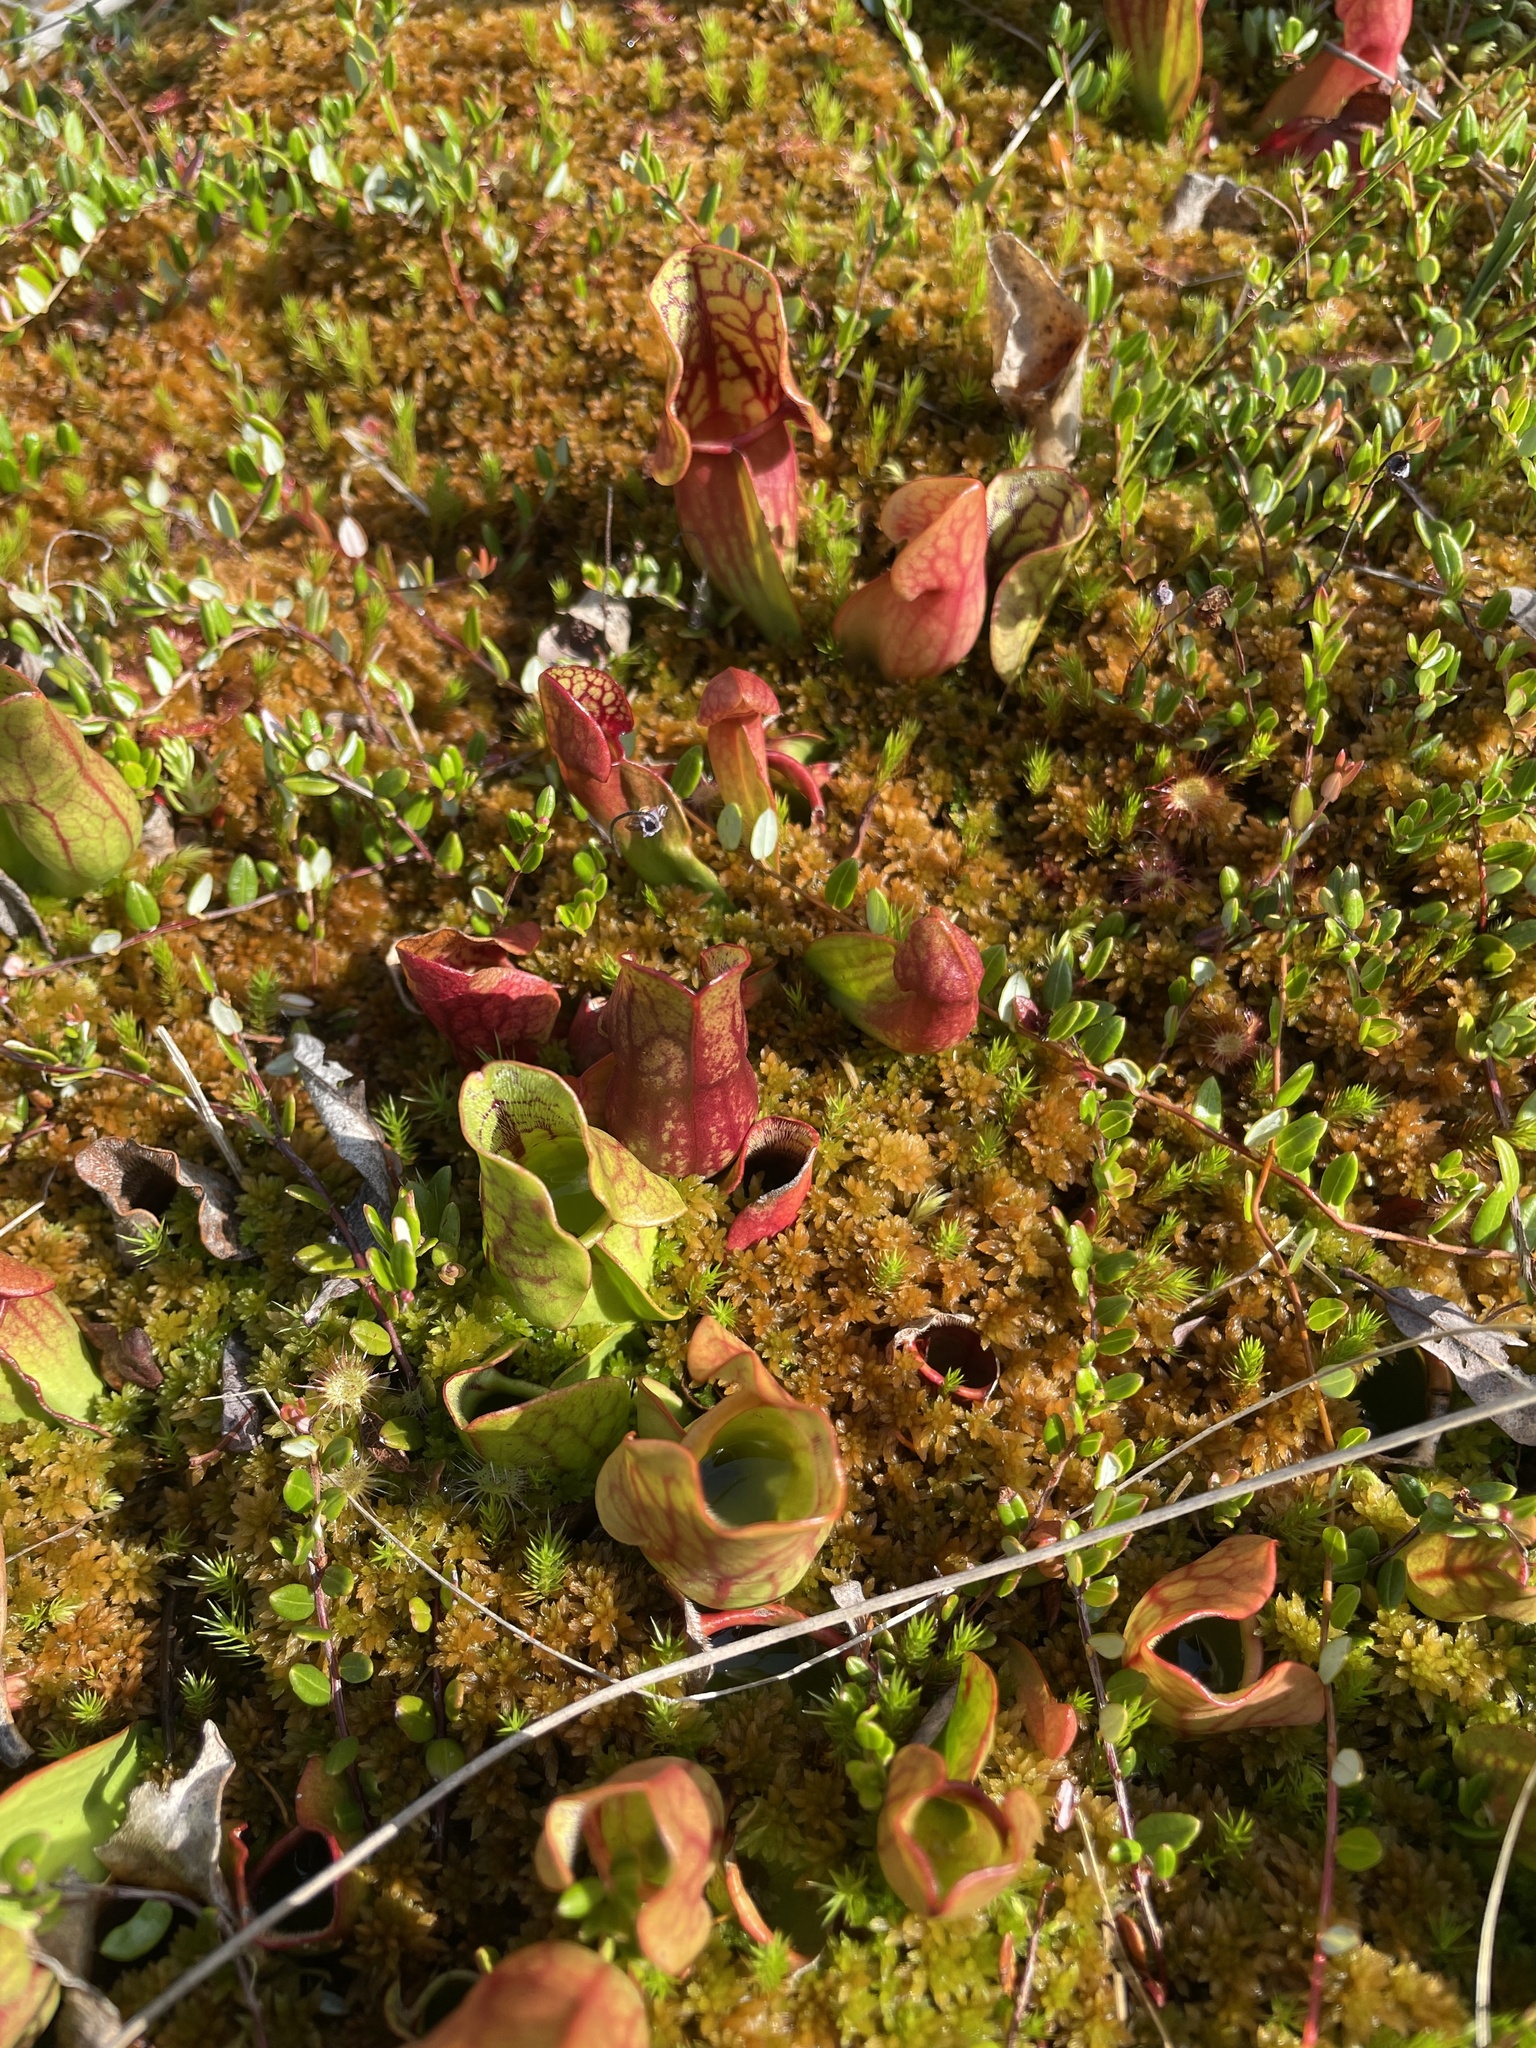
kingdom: Plantae
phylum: Tracheophyta
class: Magnoliopsida
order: Ericales
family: Sarraceniaceae
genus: Sarracenia
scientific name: Sarracenia purpurea
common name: Pitcherplant
